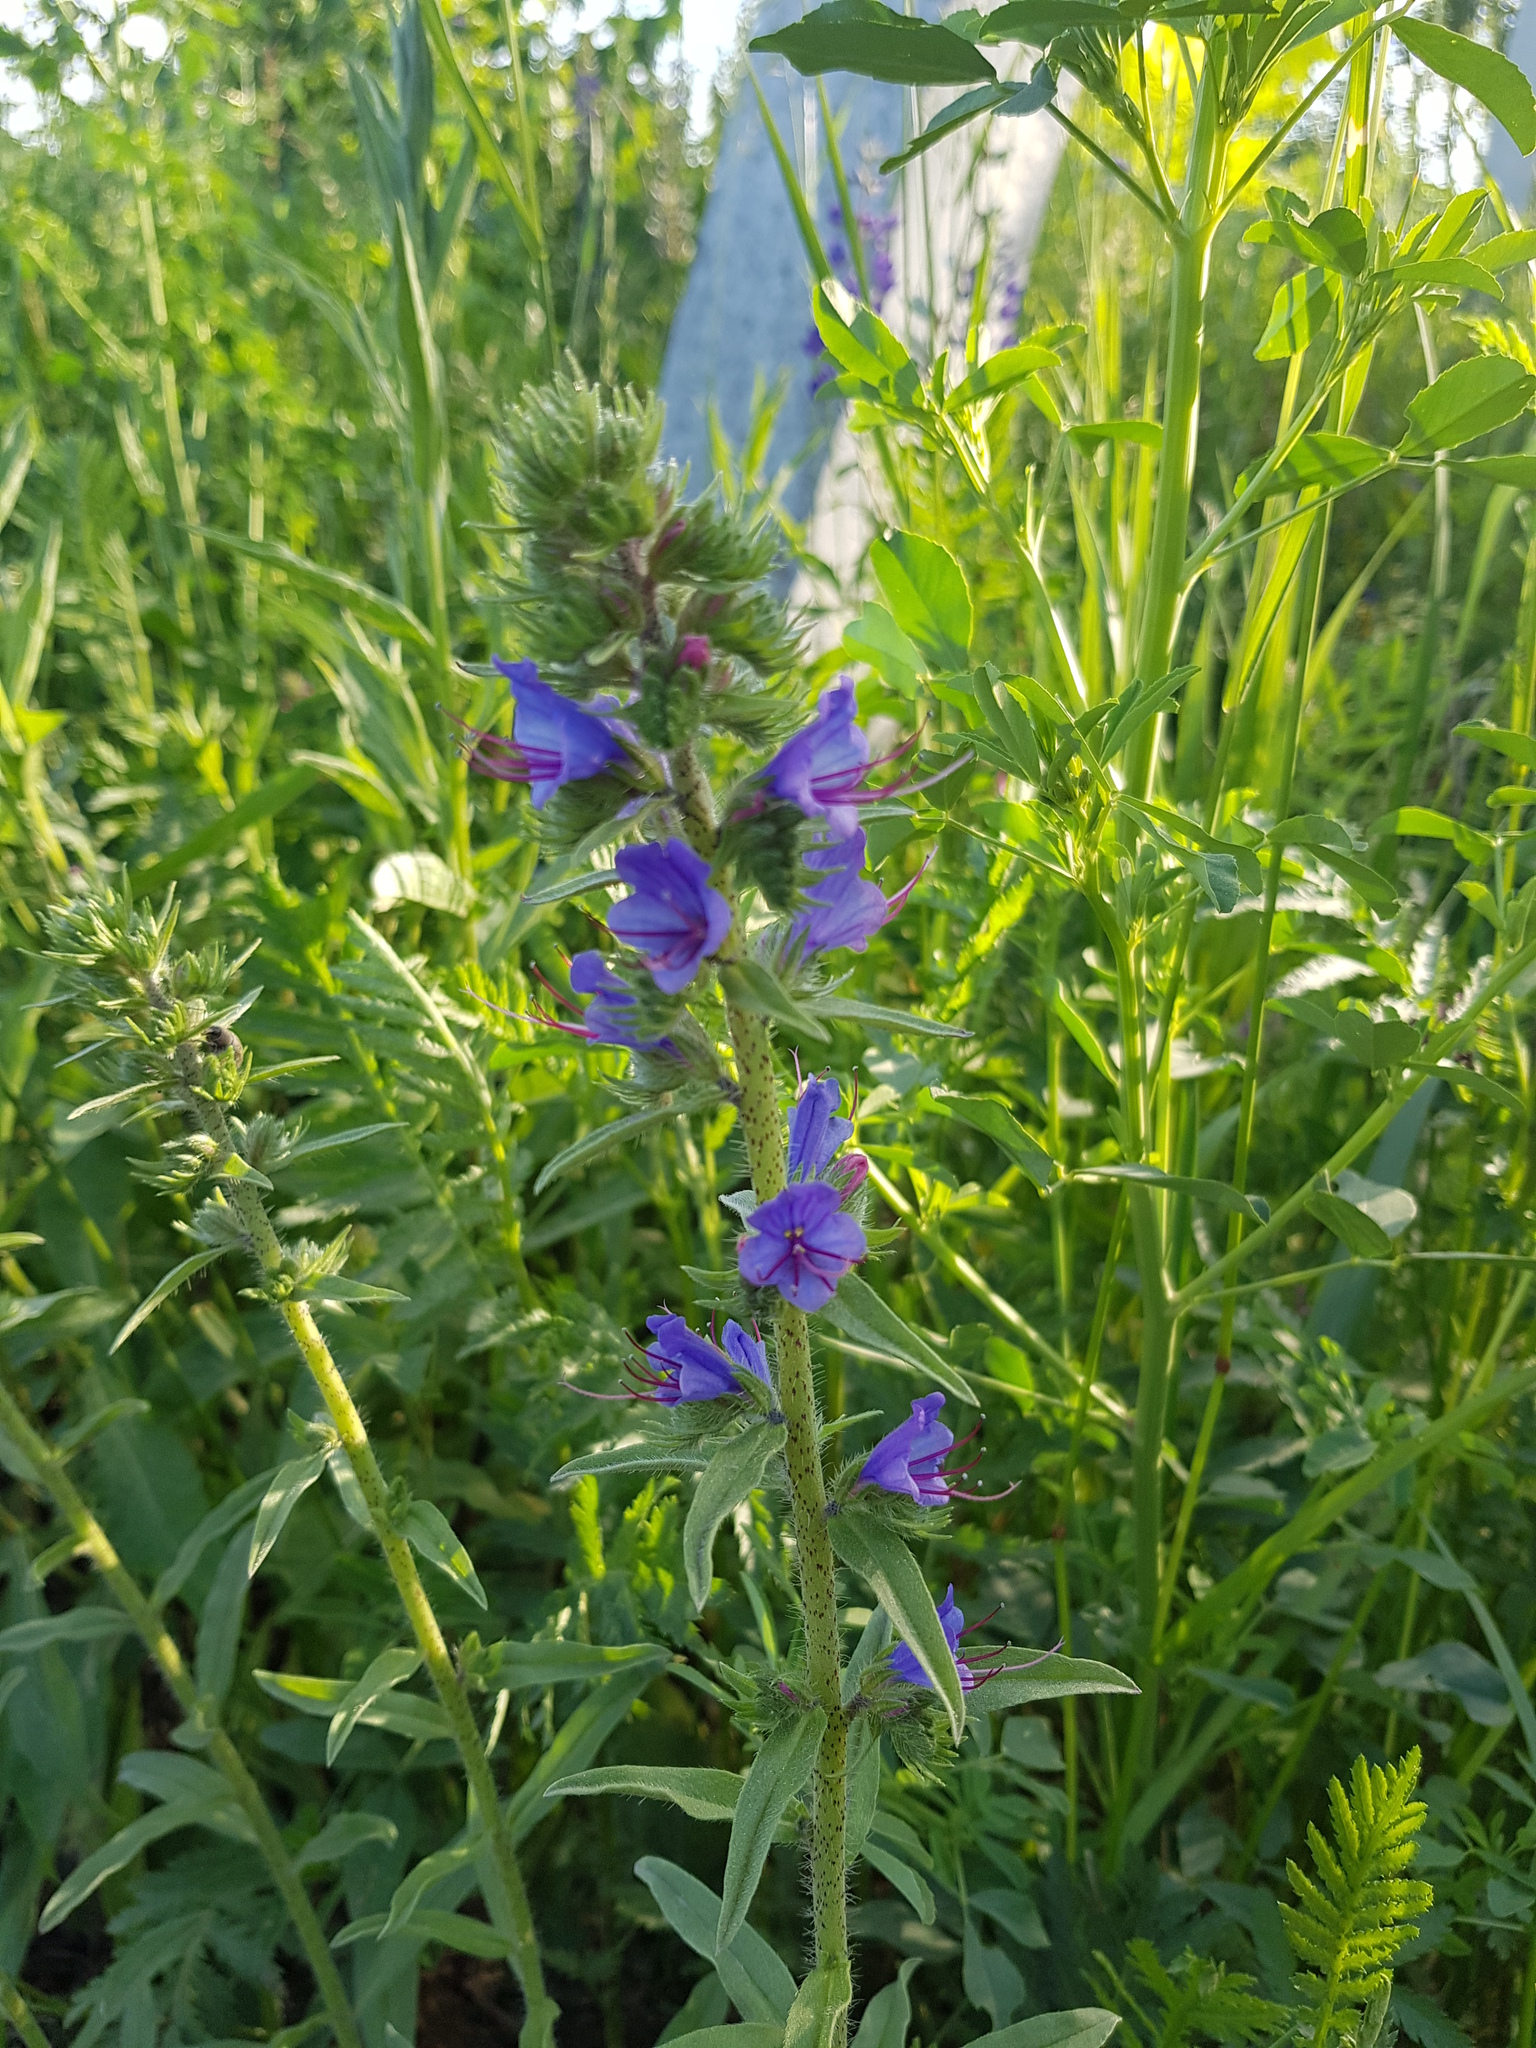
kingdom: Plantae
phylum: Tracheophyta
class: Magnoliopsida
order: Boraginales
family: Boraginaceae
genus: Echium
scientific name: Echium vulgare
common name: Common viper's bugloss
